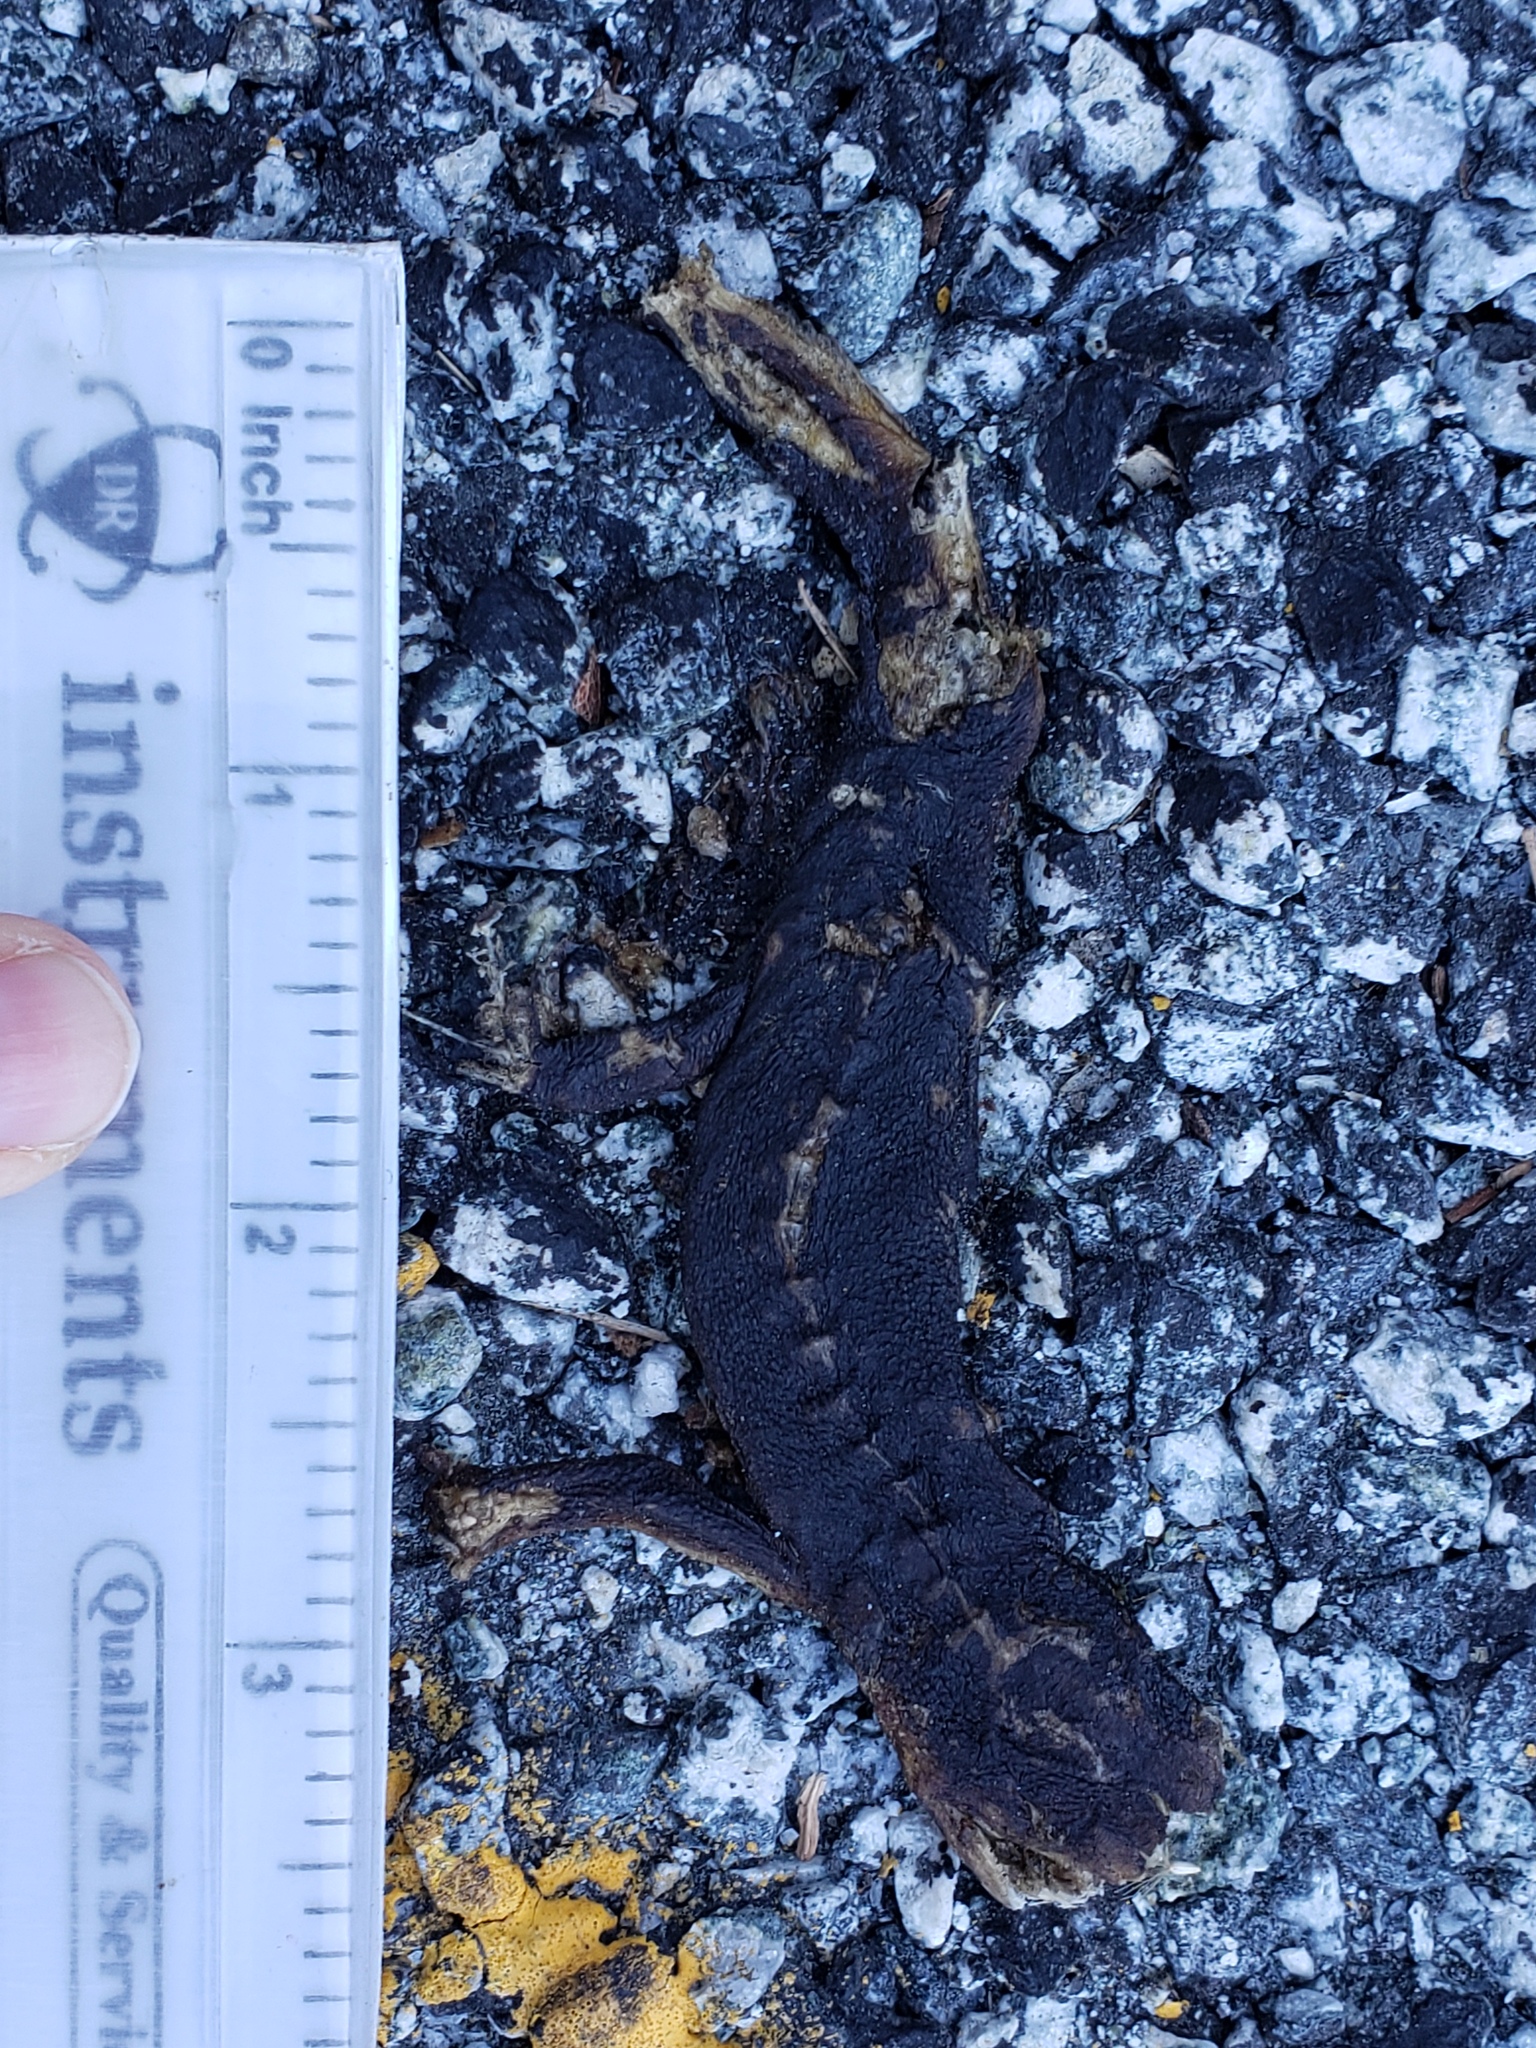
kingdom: Animalia
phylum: Chordata
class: Amphibia
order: Caudata
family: Salamandridae
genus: Taricha
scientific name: Taricha
